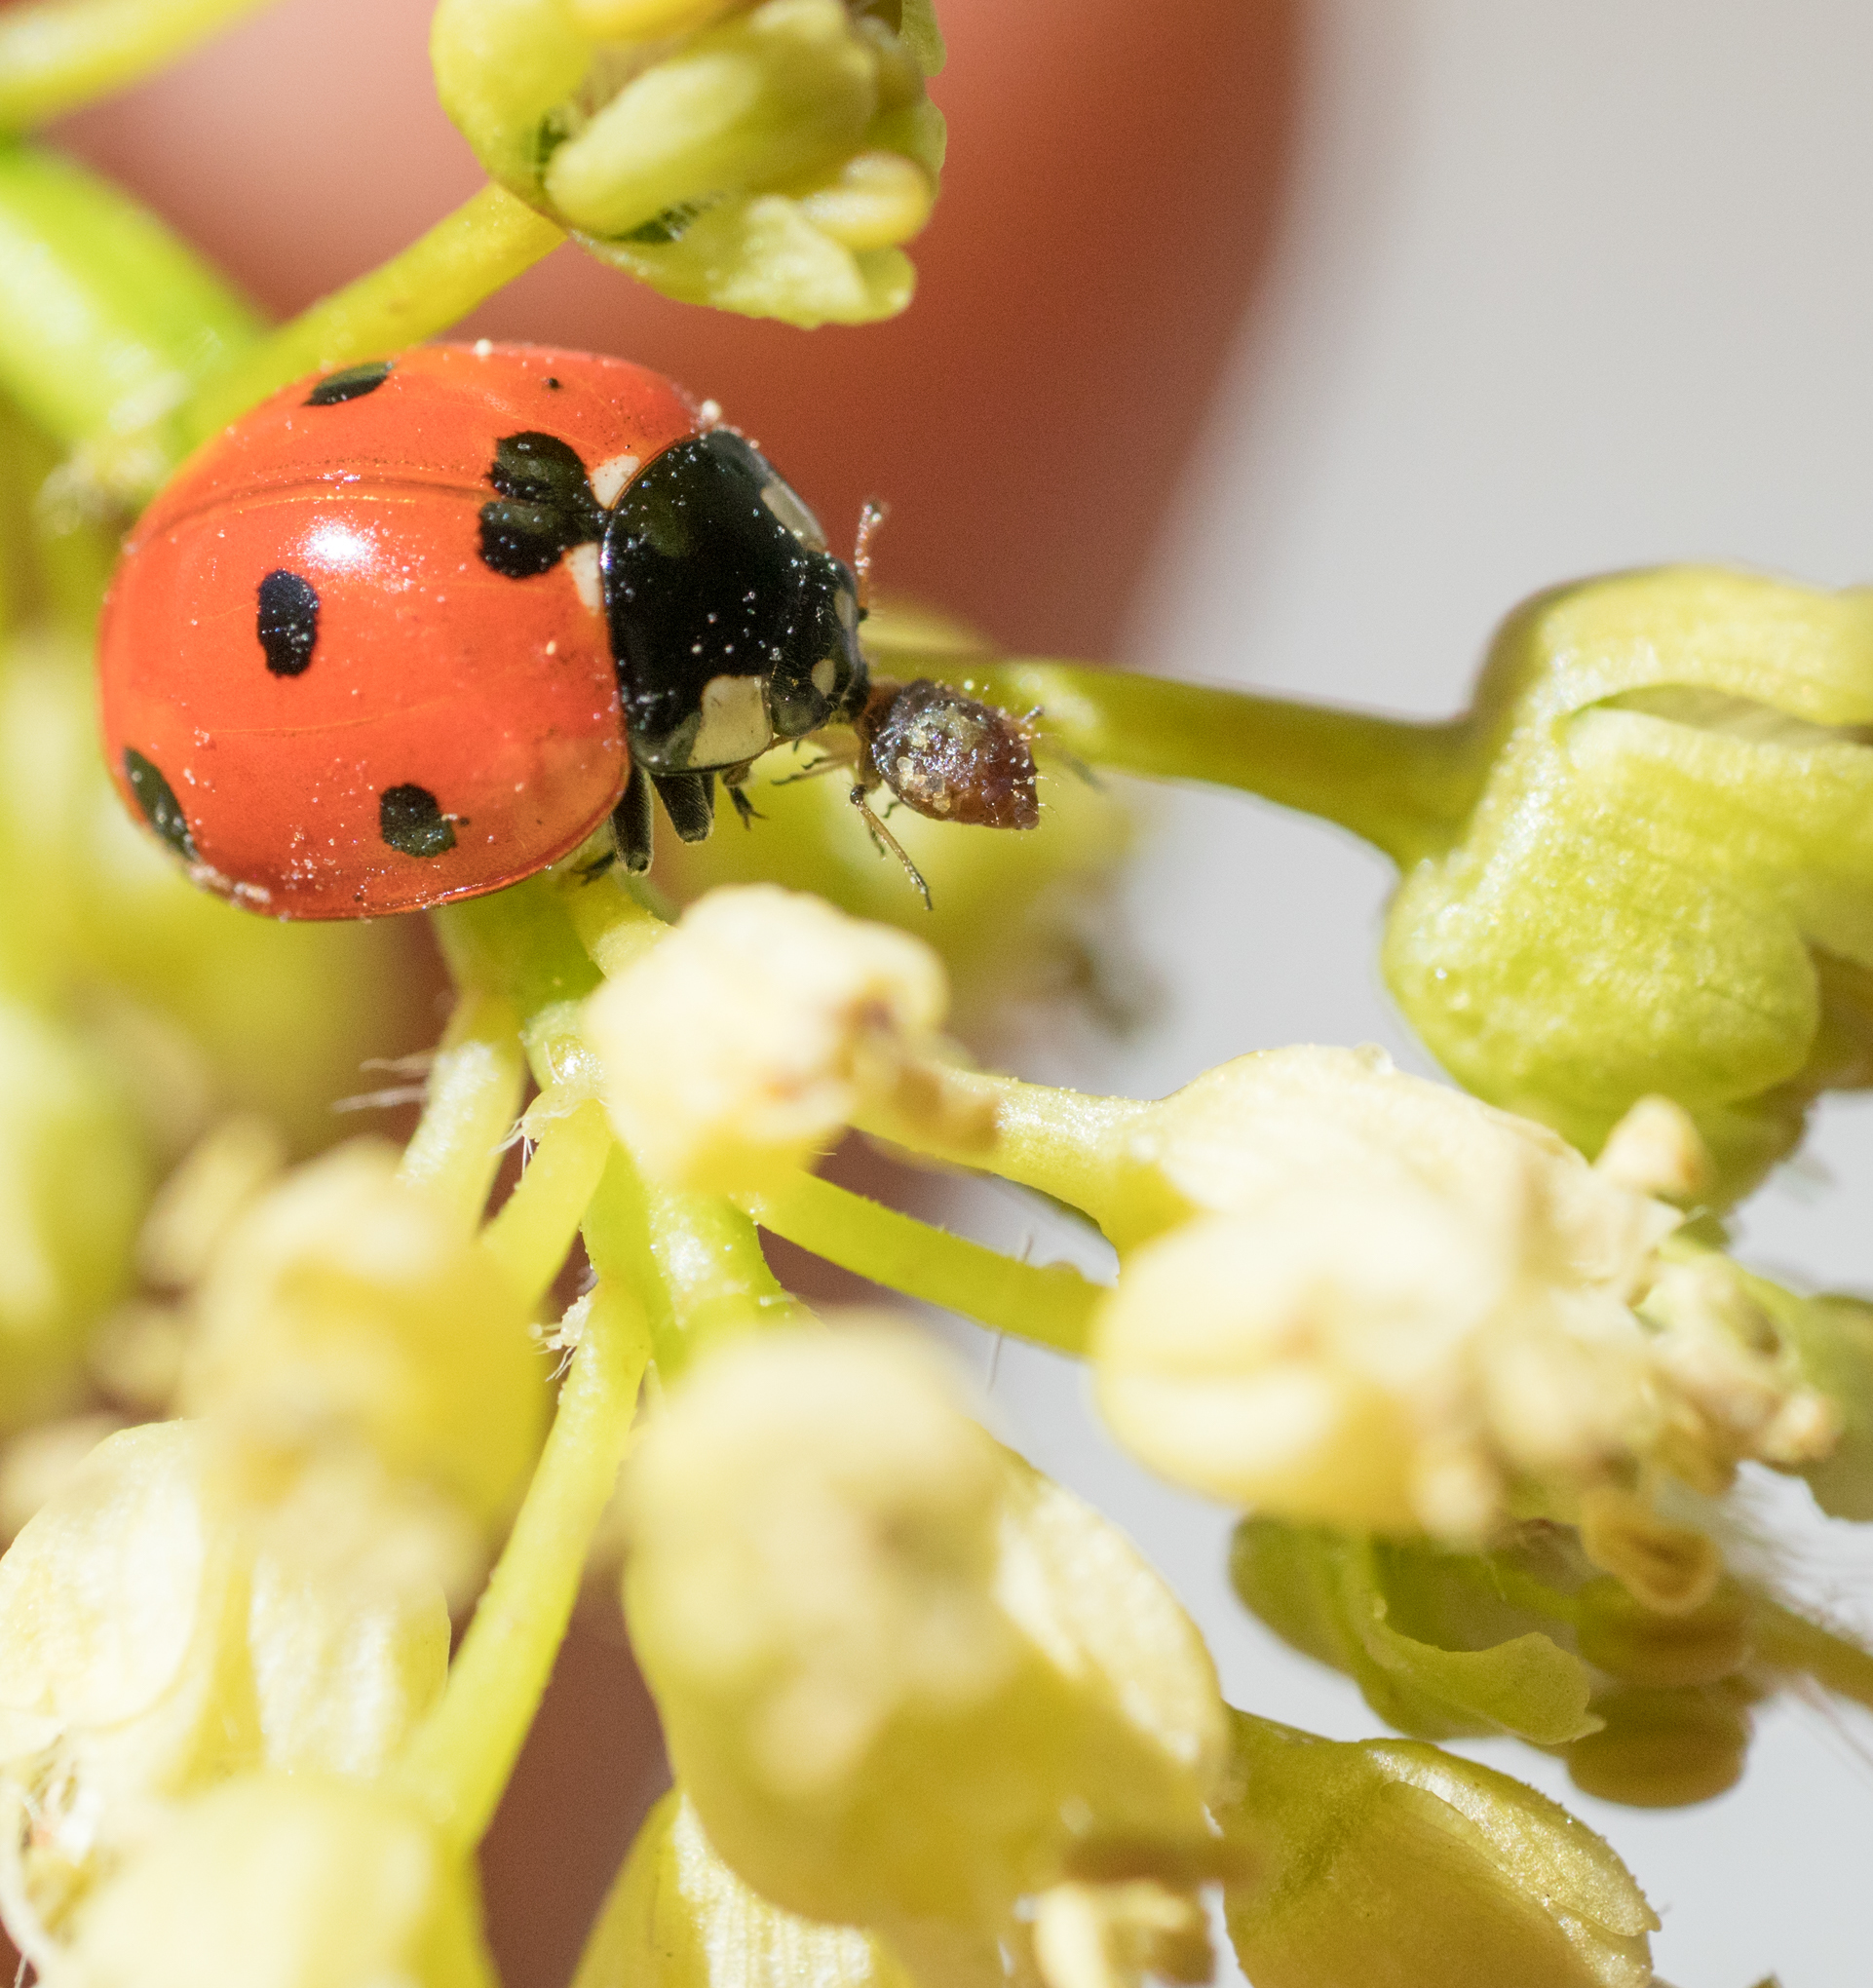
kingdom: Animalia
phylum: Arthropoda
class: Insecta
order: Coleoptera
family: Coccinellidae
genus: Coccinella
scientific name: Coccinella septempunctata
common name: Sevenspotted lady beetle
